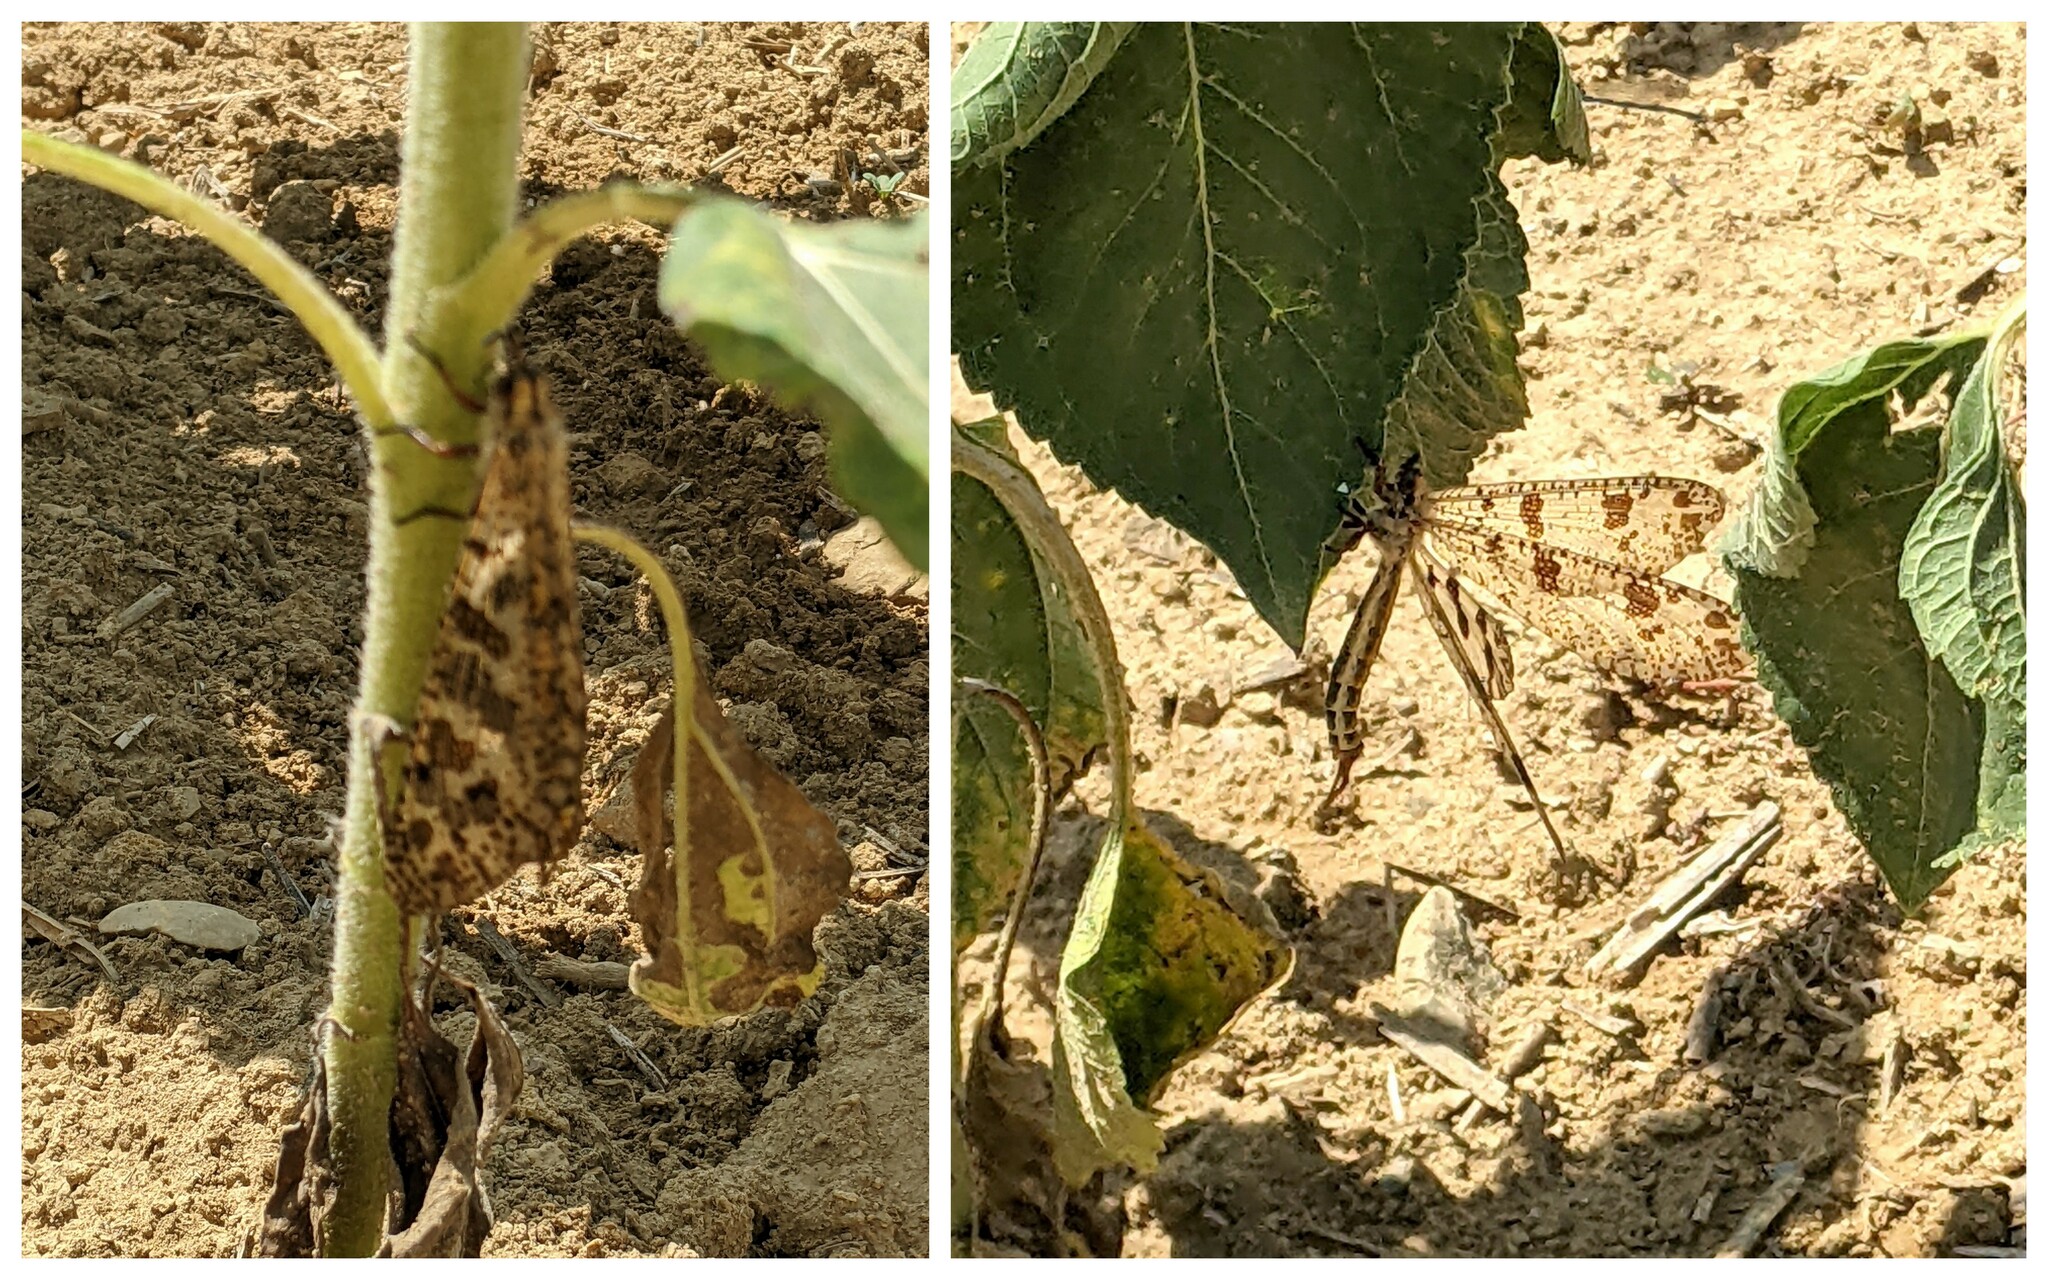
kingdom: Animalia
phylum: Arthropoda
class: Insecta
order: Neuroptera
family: Myrmeleontidae
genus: Palpares
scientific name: Palpares libelluloides
